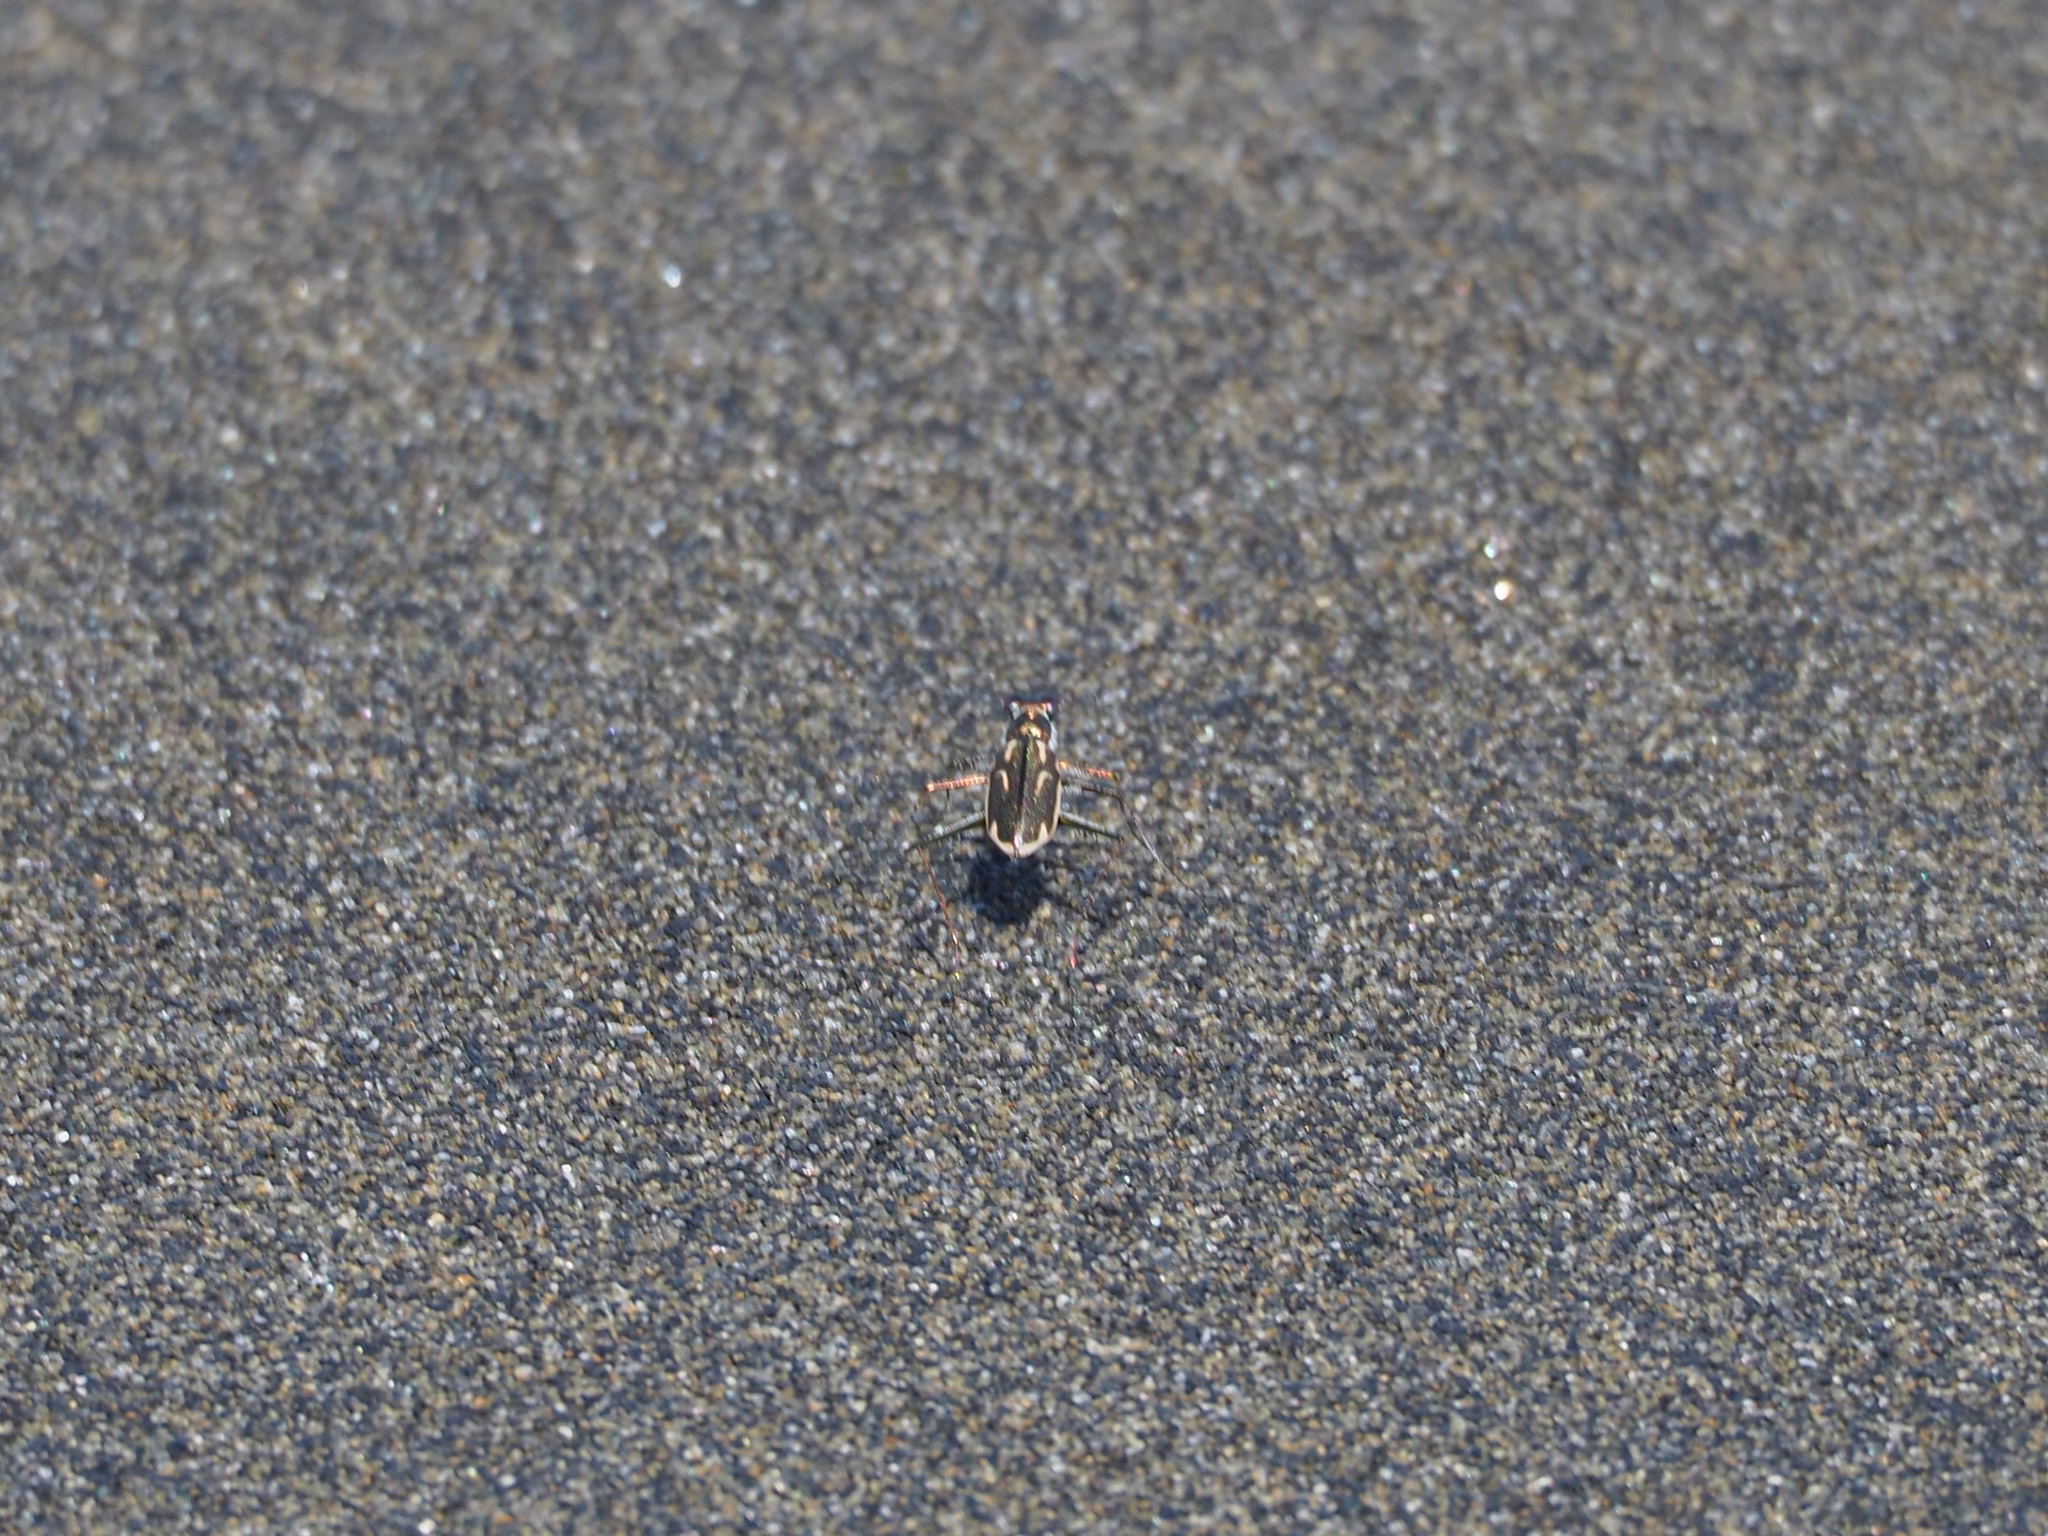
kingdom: Animalia
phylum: Arthropoda
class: Insecta
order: Coleoptera
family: Carabidae
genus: Abroscelis
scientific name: Abroscelis anchoralis
